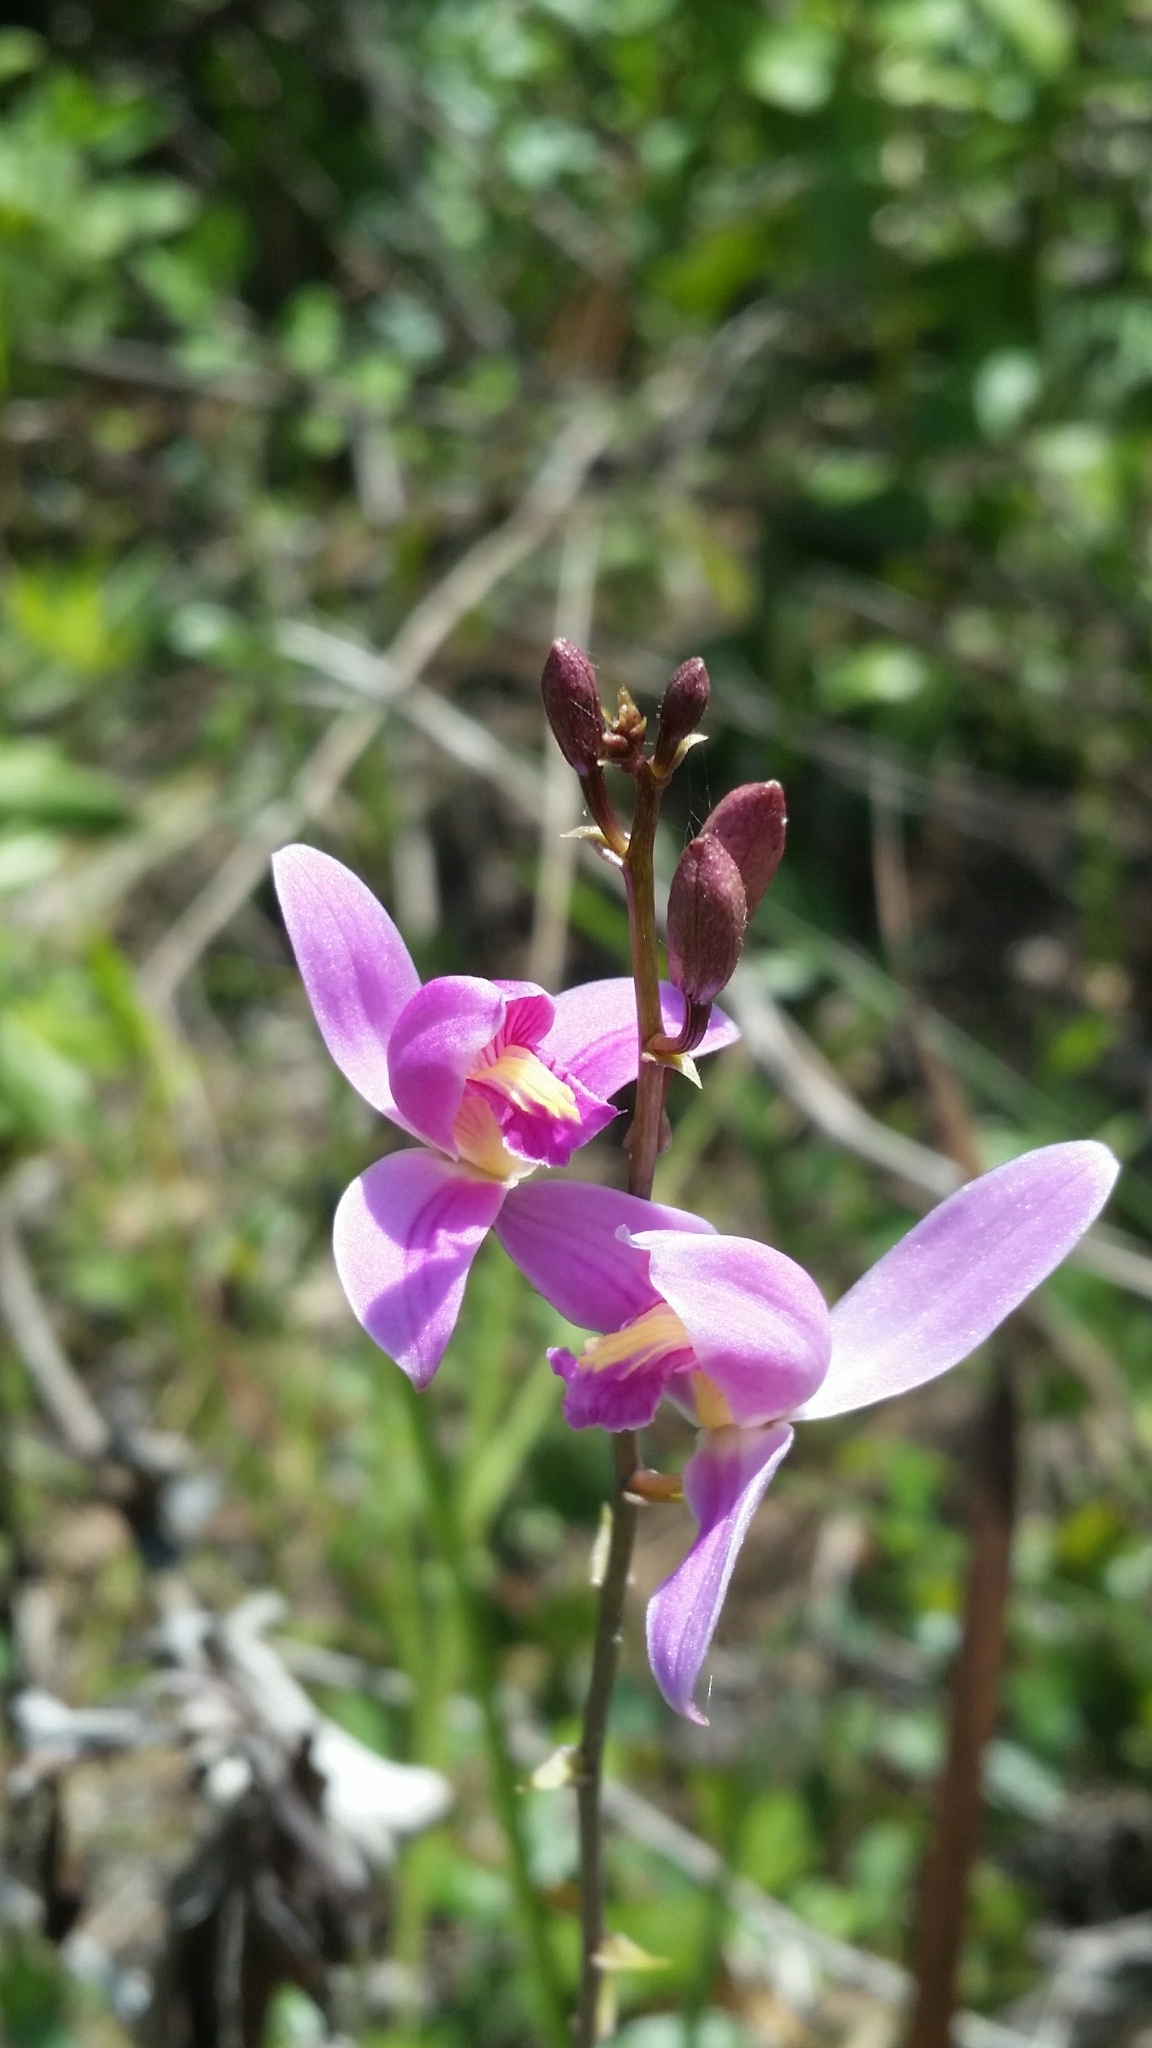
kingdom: Plantae
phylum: Tracheophyta
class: Liliopsida
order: Asparagales
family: Orchidaceae
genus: Bletia
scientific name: Bletia purpurea
